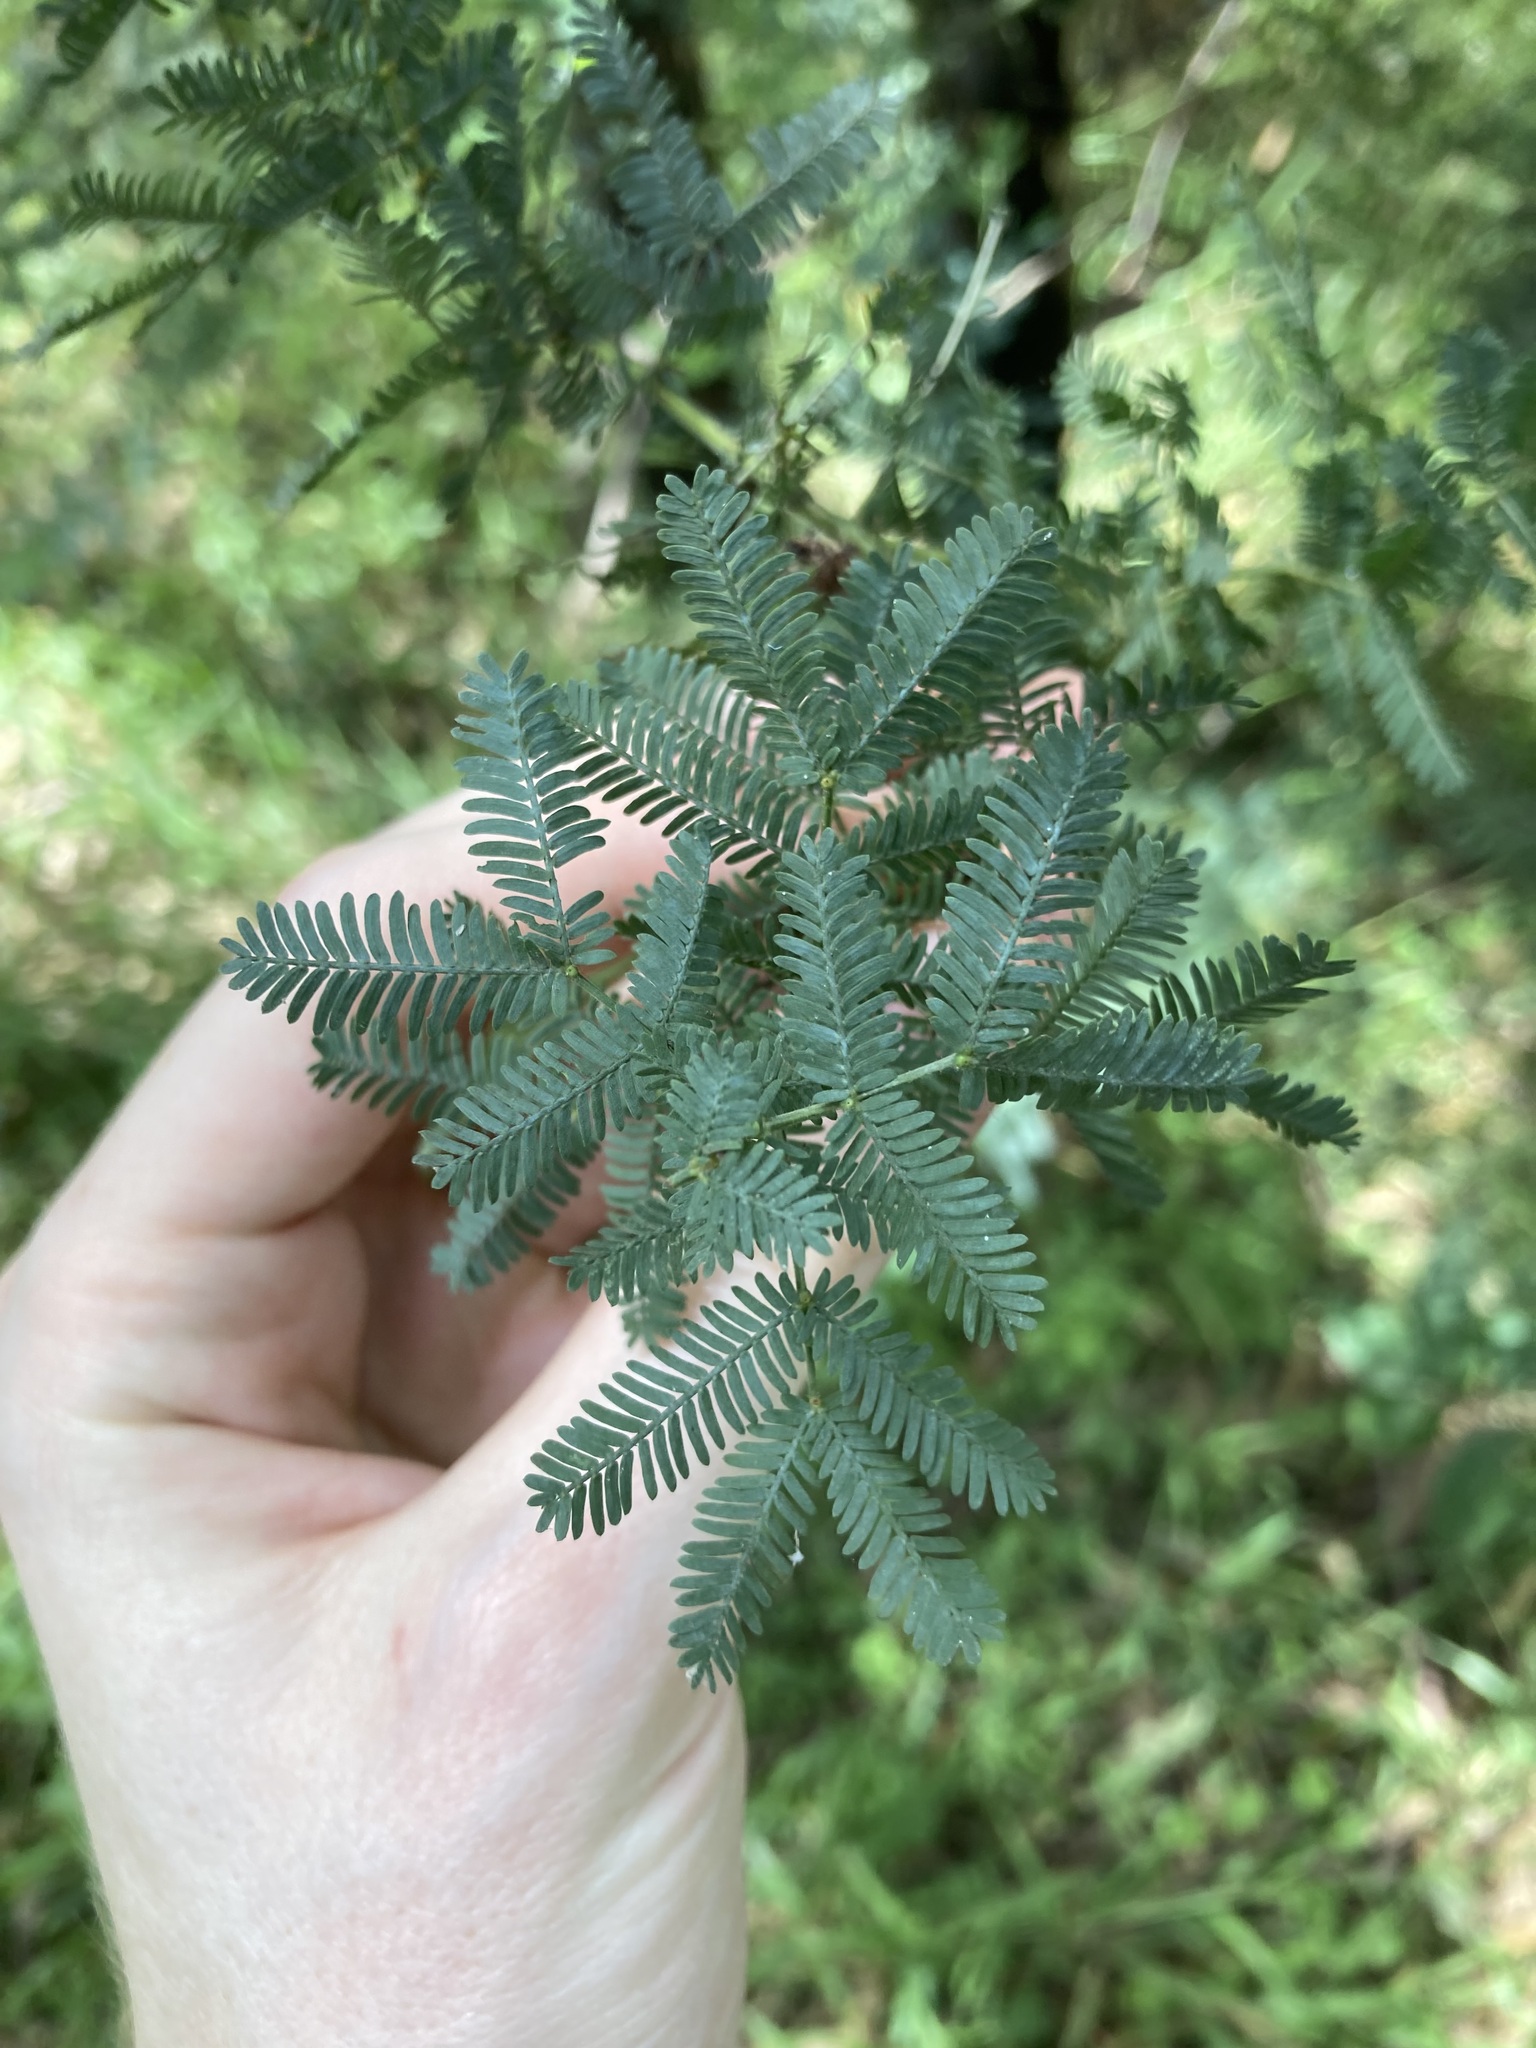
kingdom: Plantae
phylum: Tracheophyta
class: Magnoliopsida
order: Fabales
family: Fabaceae
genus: Acacia
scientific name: Acacia baileyana
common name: Cootamundra wattle
